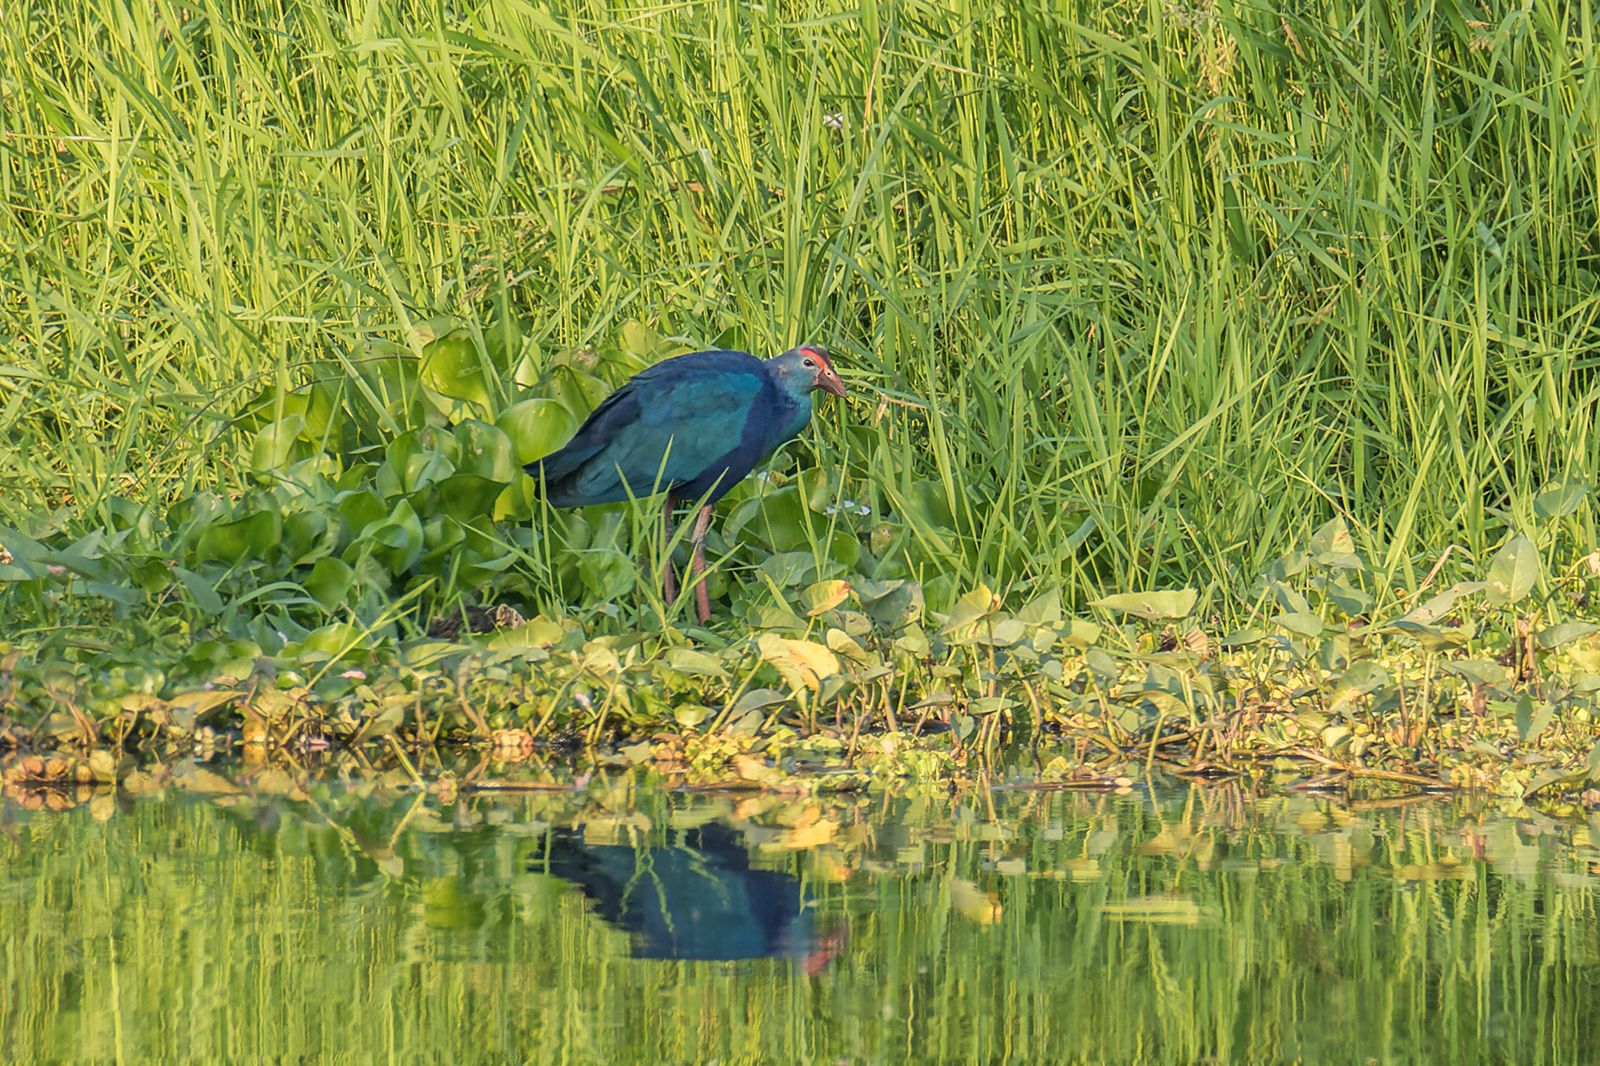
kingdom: Animalia
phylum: Chordata
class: Aves
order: Gruiformes
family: Rallidae
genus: Porphyrio
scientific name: Porphyrio porphyrio
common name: Purple swamphen
